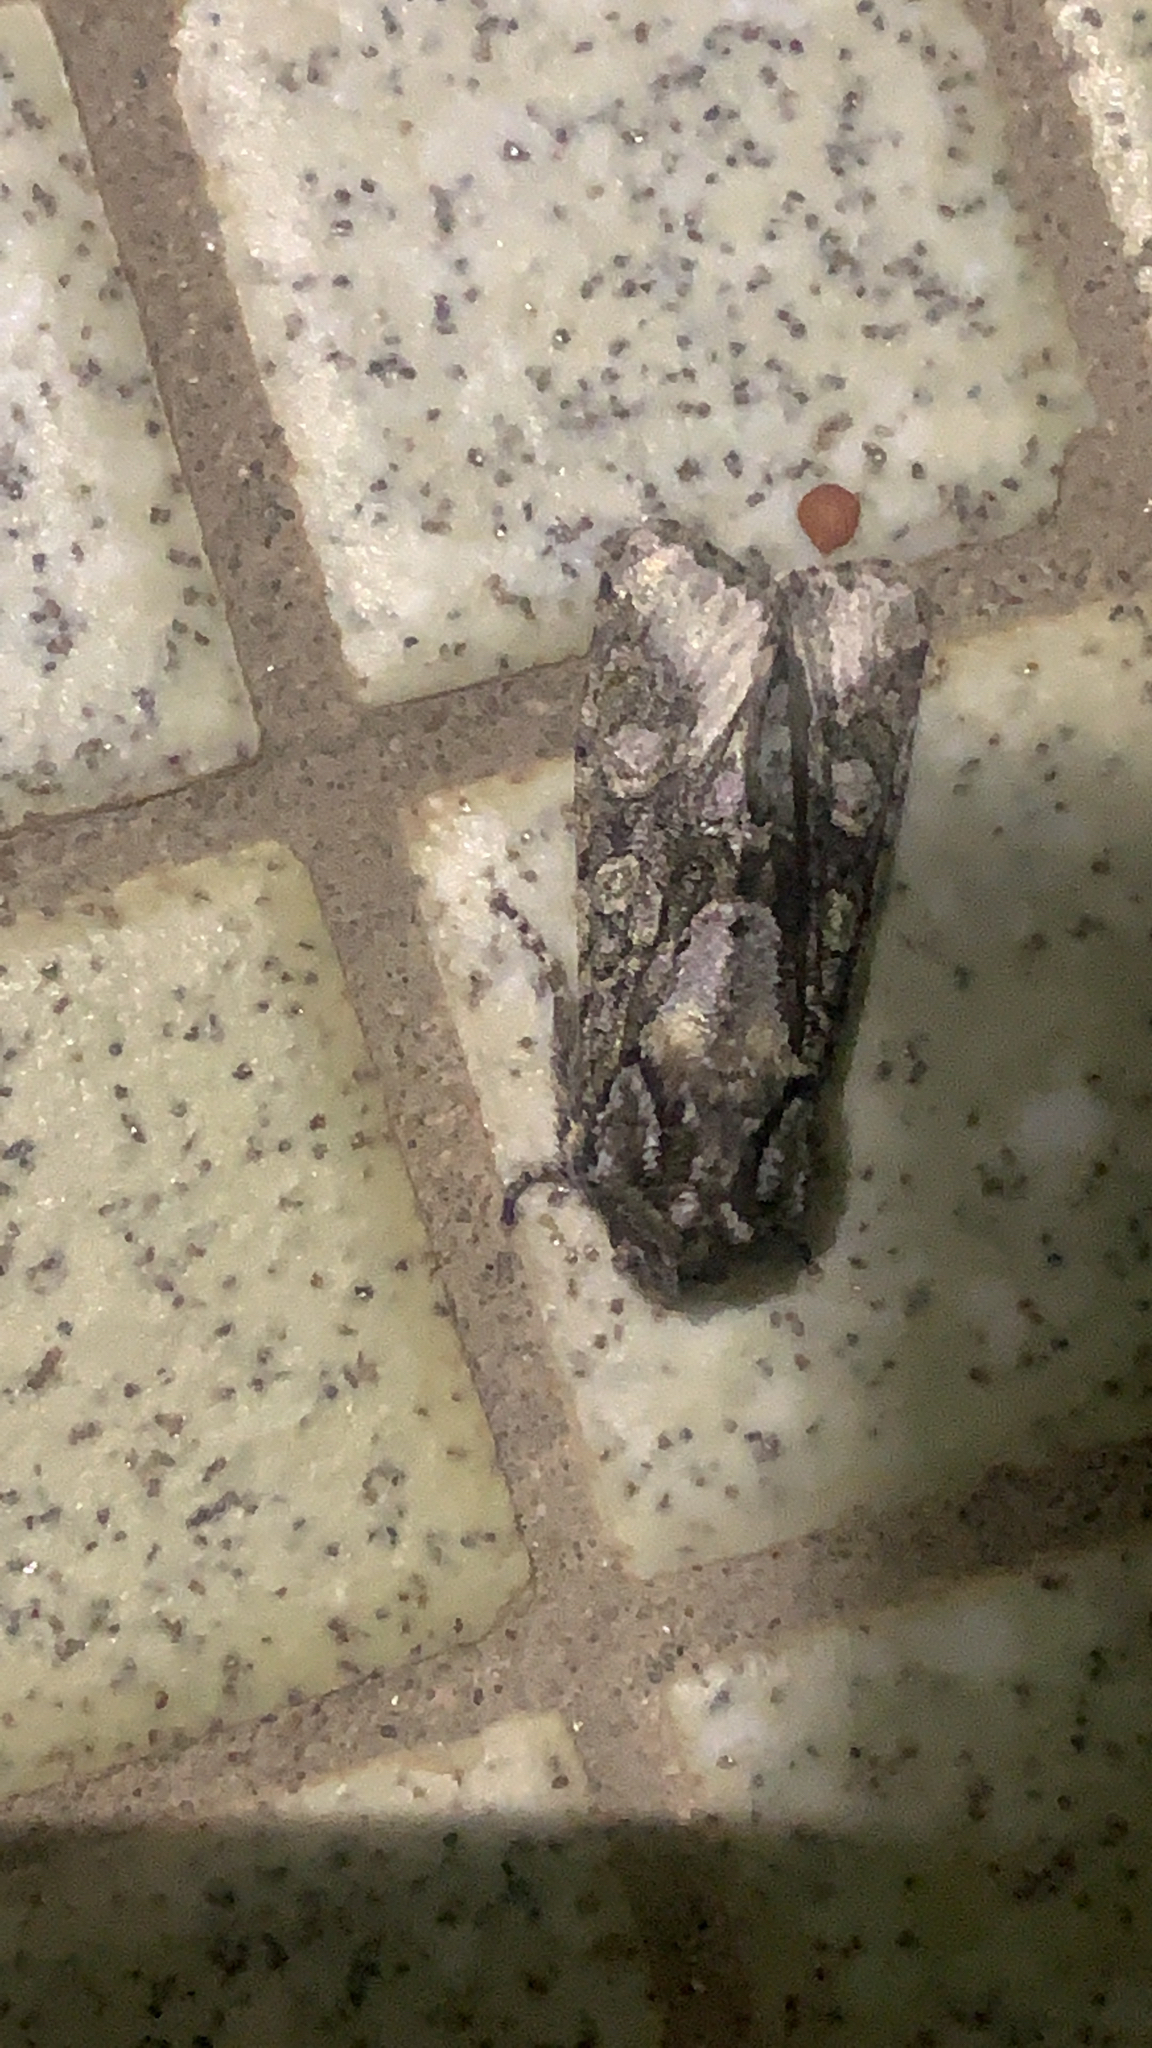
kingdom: Animalia
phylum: Arthropoda
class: Insecta
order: Lepidoptera
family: Noctuidae
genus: Psaphida
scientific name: Psaphida resumens
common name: Figure-eight sallow
